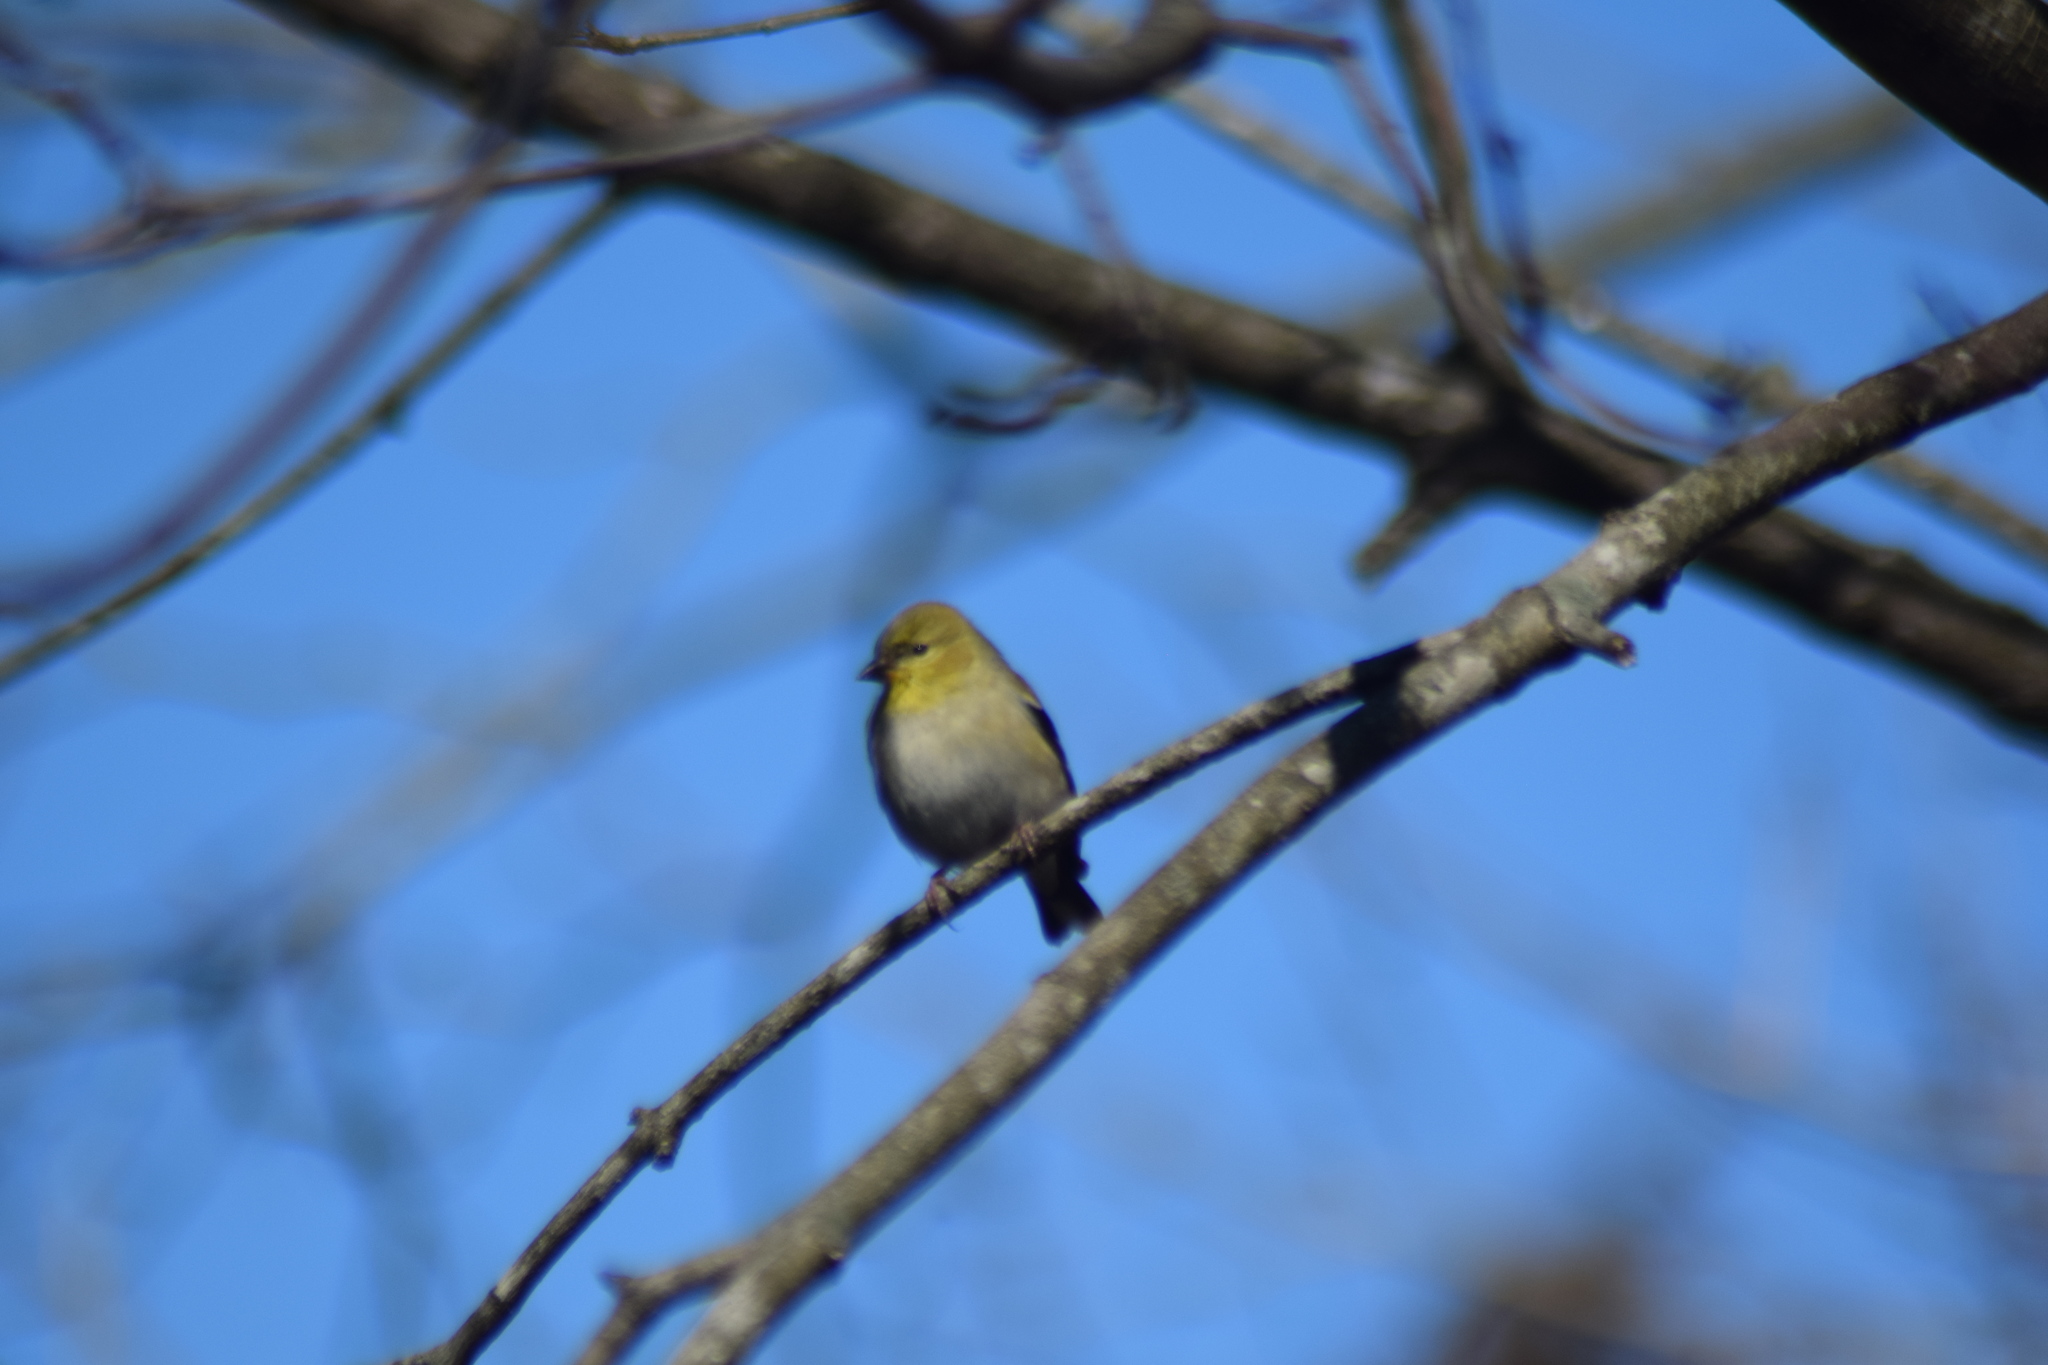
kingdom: Animalia
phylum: Chordata
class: Aves
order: Passeriformes
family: Fringillidae
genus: Spinus
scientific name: Spinus tristis
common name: American goldfinch
